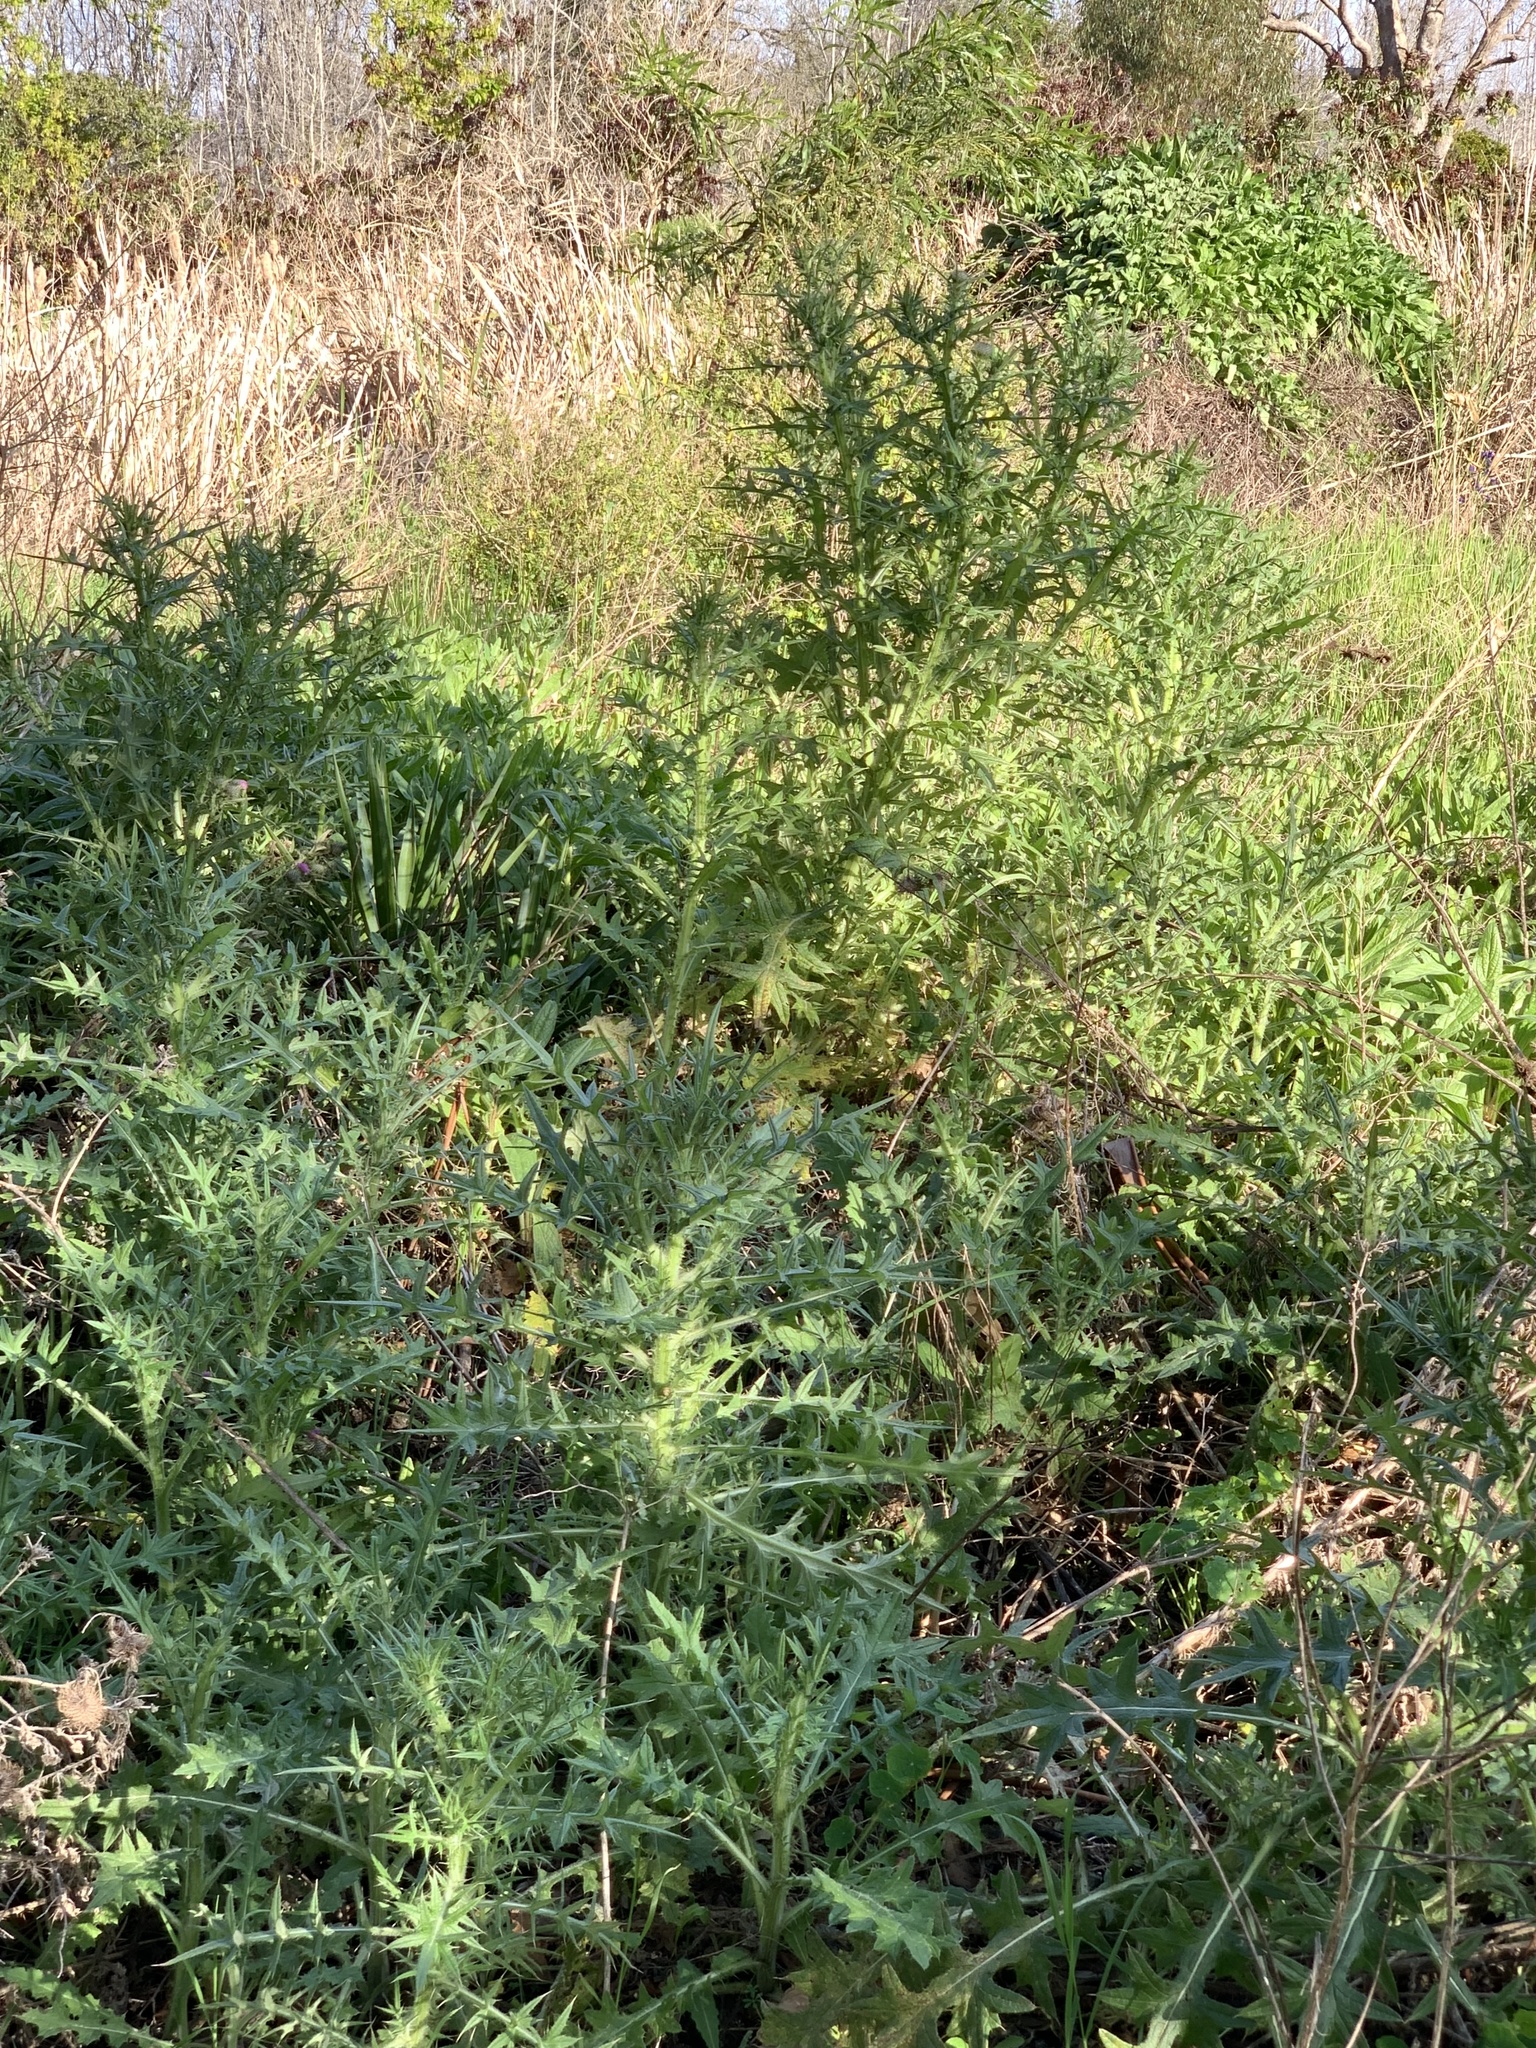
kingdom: Plantae
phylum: Tracheophyta
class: Magnoliopsida
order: Asterales
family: Asteraceae
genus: Cirsium
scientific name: Cirsium vulgare
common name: Bull thistle
